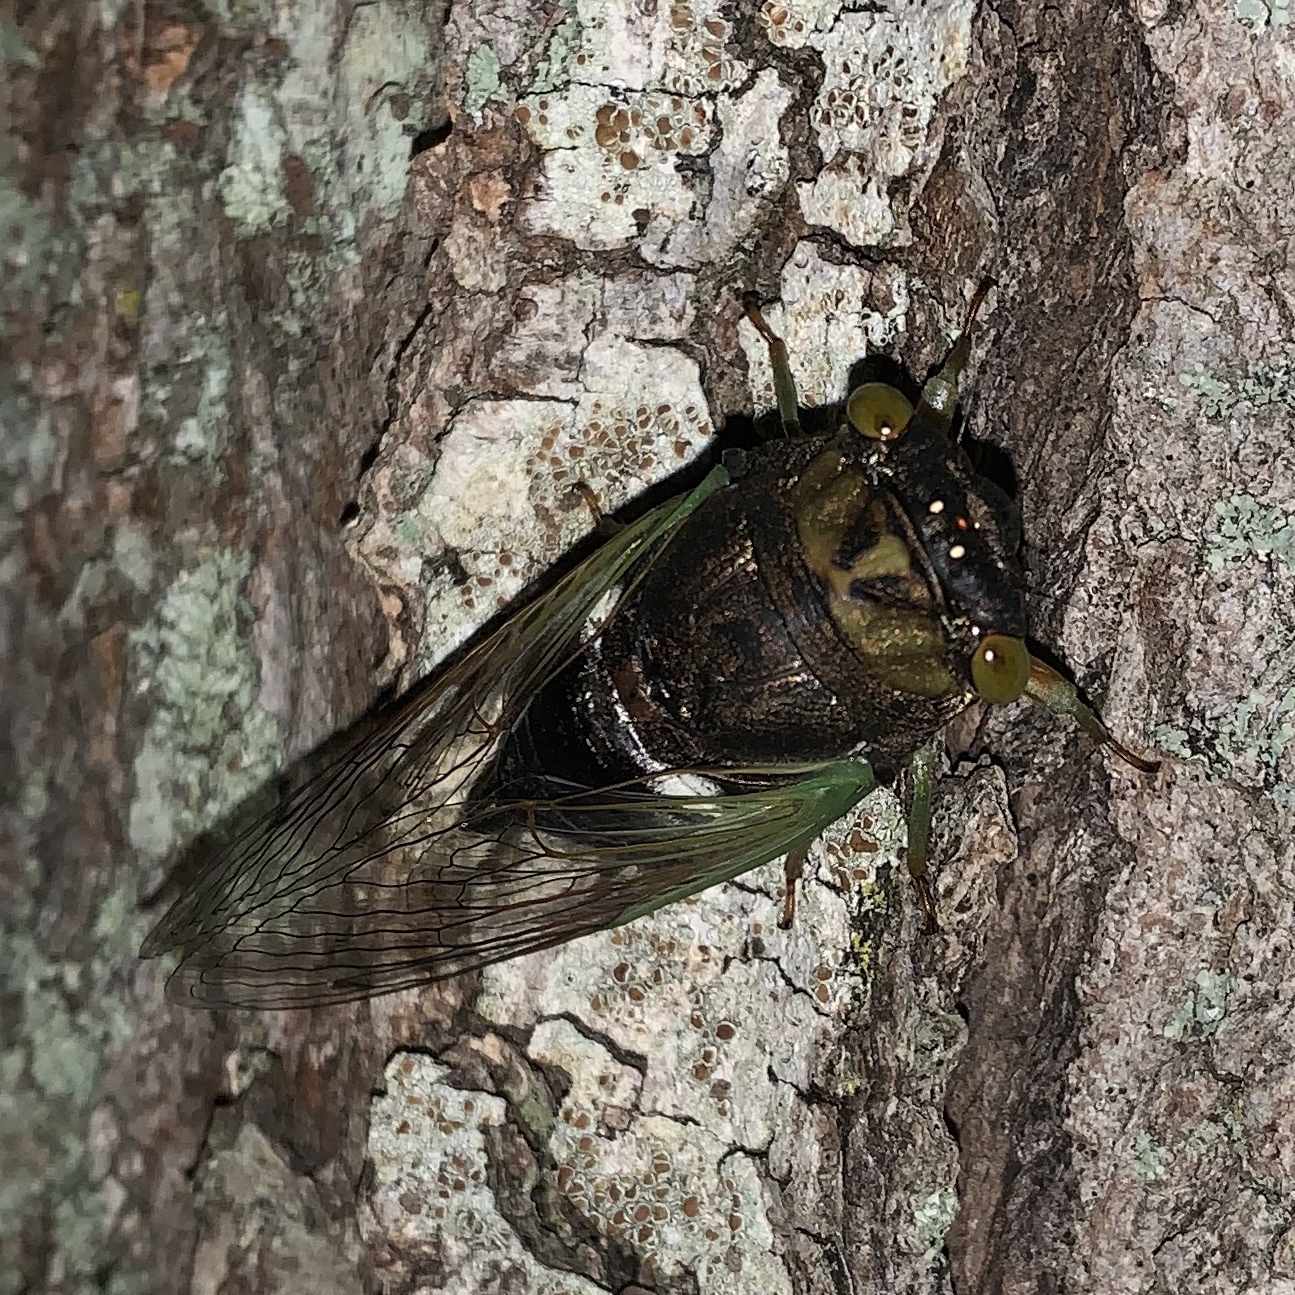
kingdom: Animalia
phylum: Arthropoda
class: Insecta
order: Hemiptera
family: Cicadidae
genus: Neotibicen
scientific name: Neotibicen tibicen
